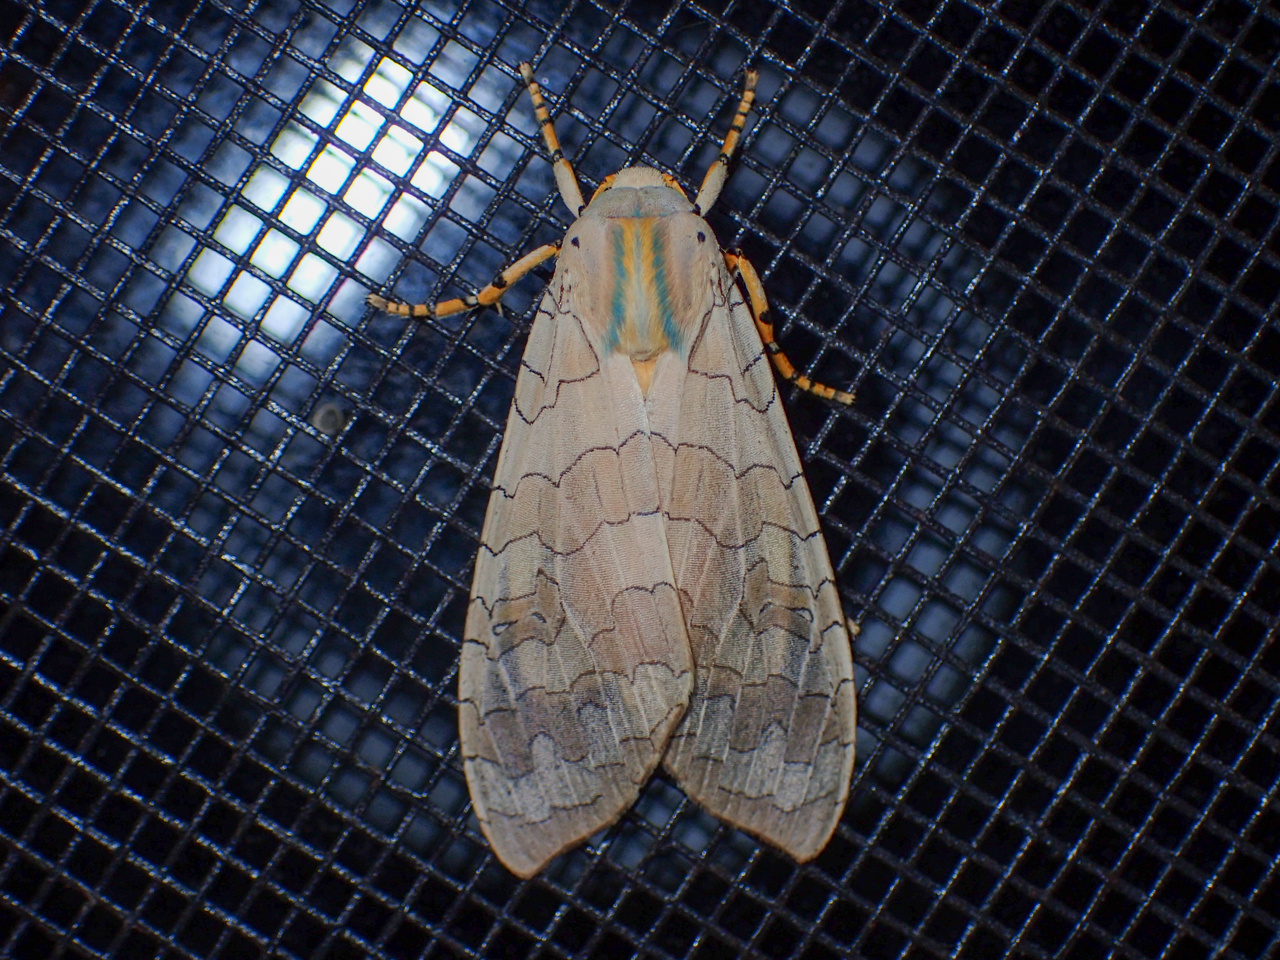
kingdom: Animalia
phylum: Arthropoda
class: Insecta
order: Lepidoptera
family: Erebidae
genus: Halysidota
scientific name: Halysidota
